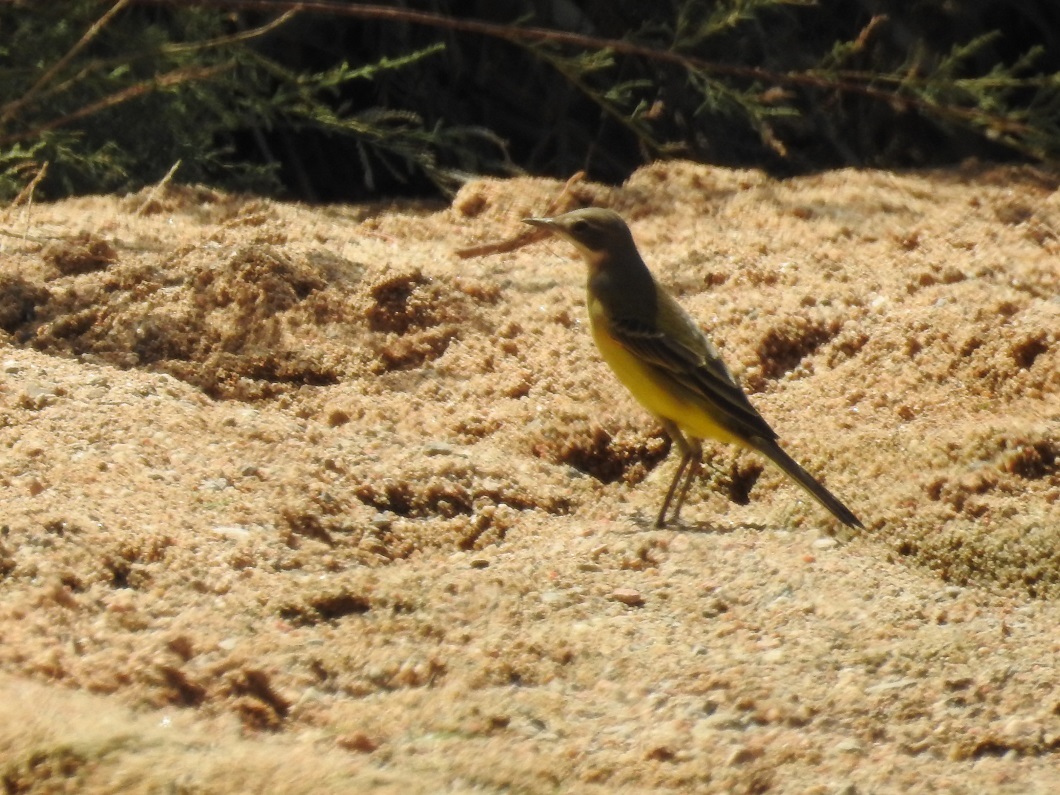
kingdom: Animalia
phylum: Chordata
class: Aves
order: Passeriformes
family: Motacillidae
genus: Motacilla
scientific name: Motacilla flava
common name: Western yellow wagtail
